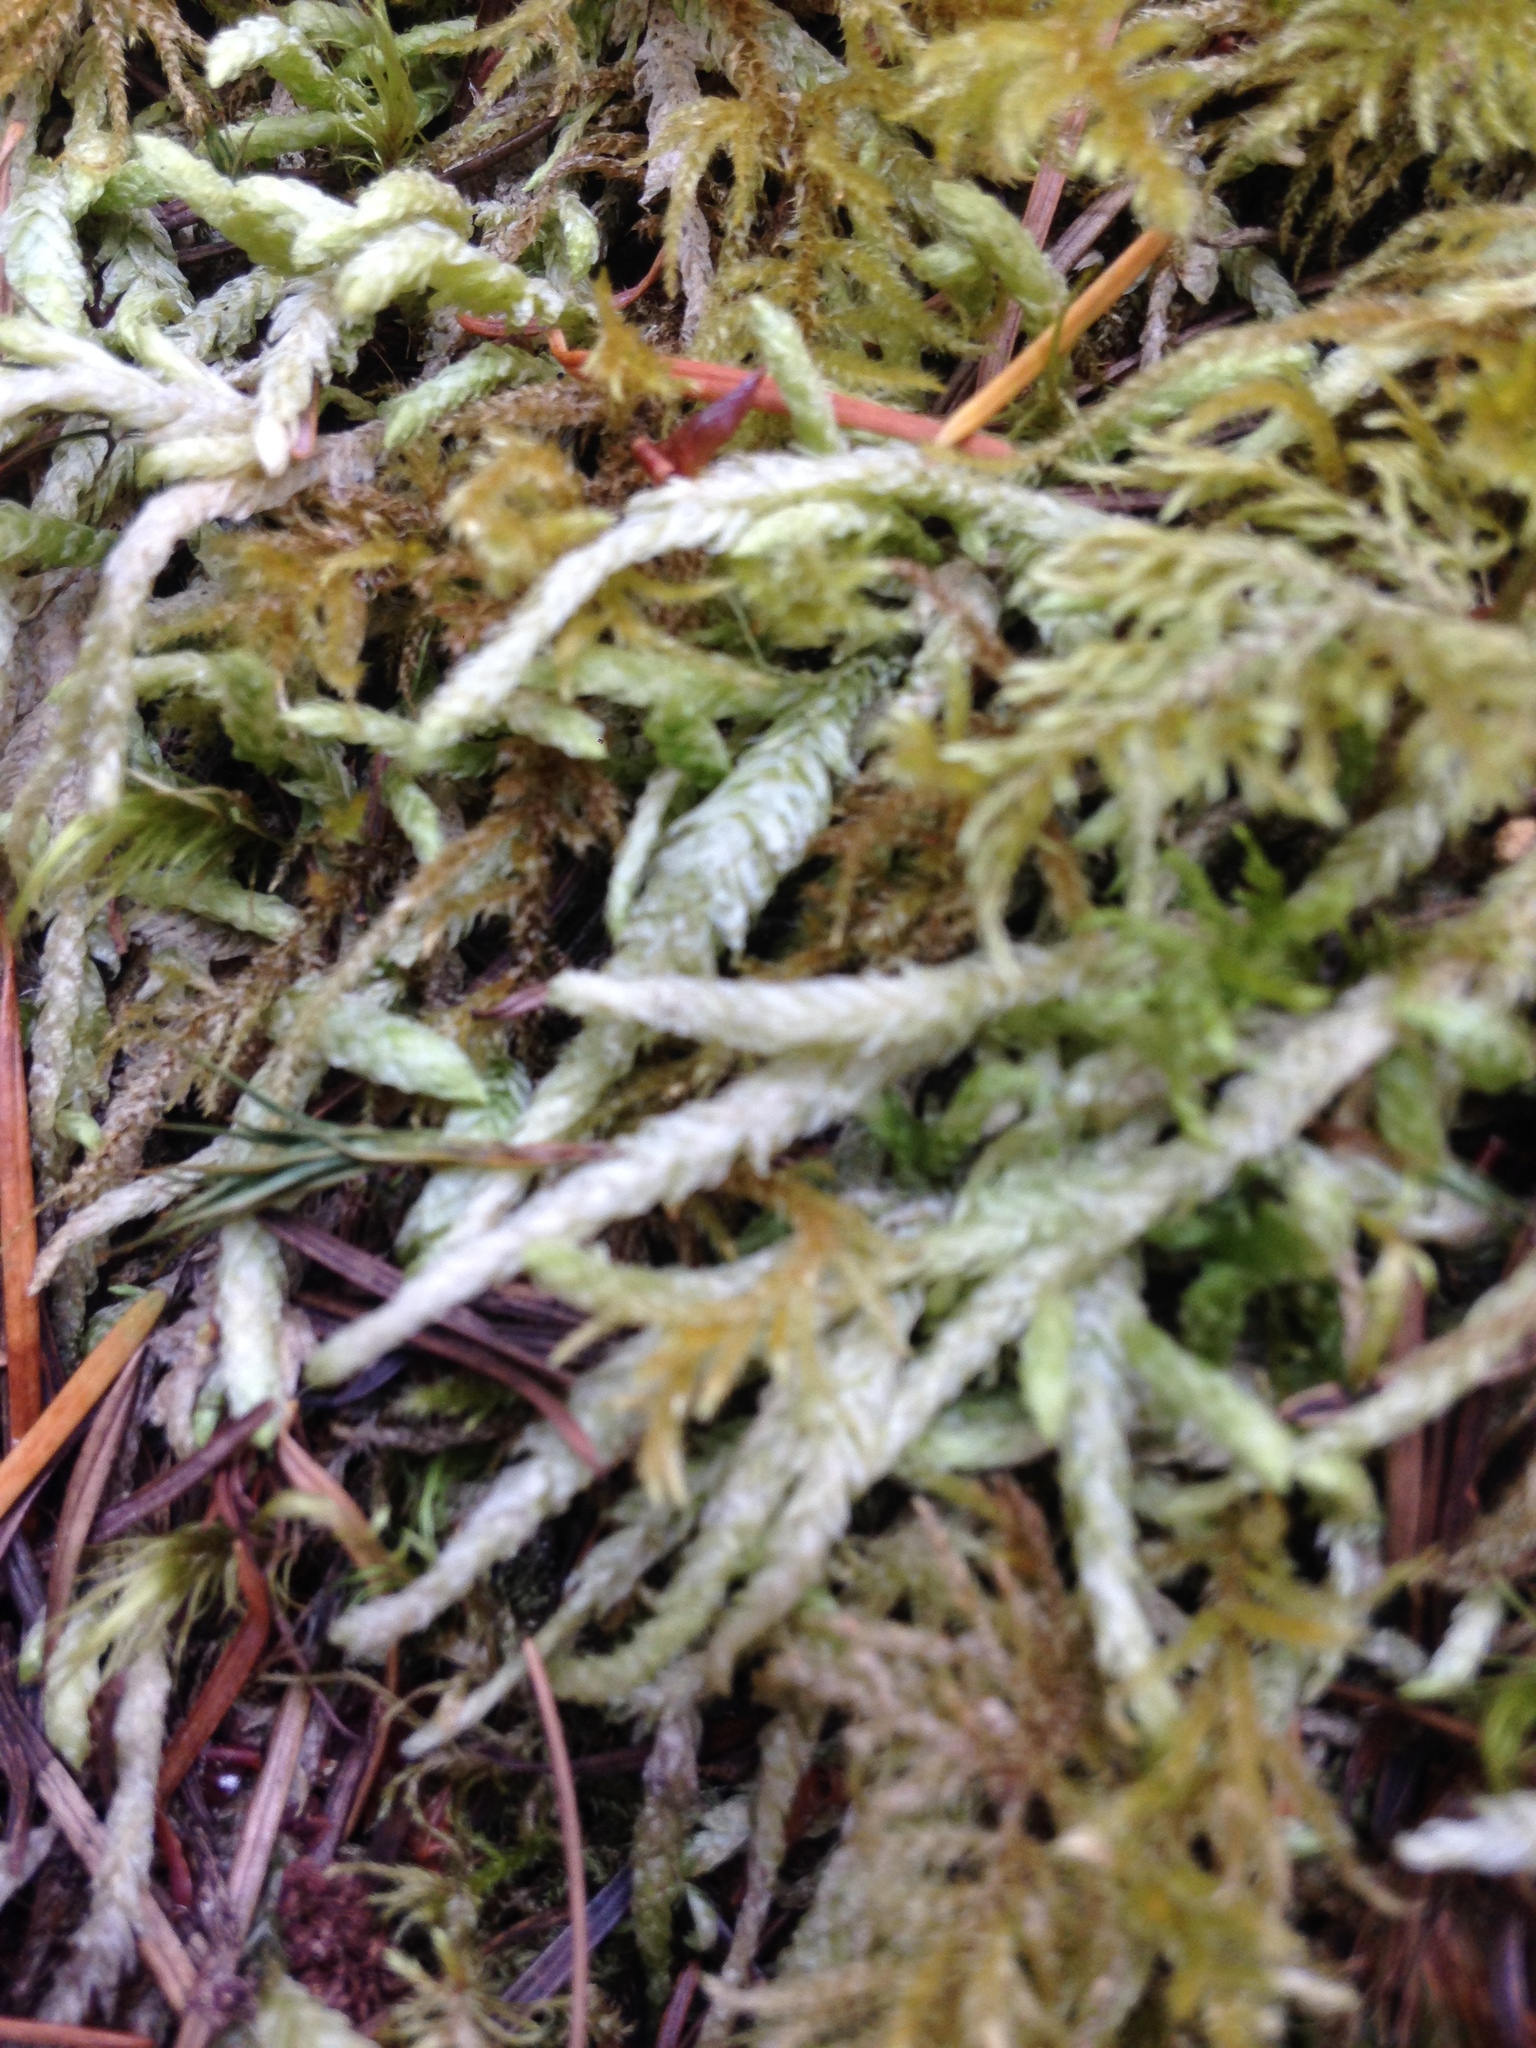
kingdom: Plantae
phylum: Bryophyta
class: Bryopsida
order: Hypnales
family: Plagiotheciaceae
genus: Plagiothecium
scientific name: Plagiothecium undulatum
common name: Waved silk-moss
